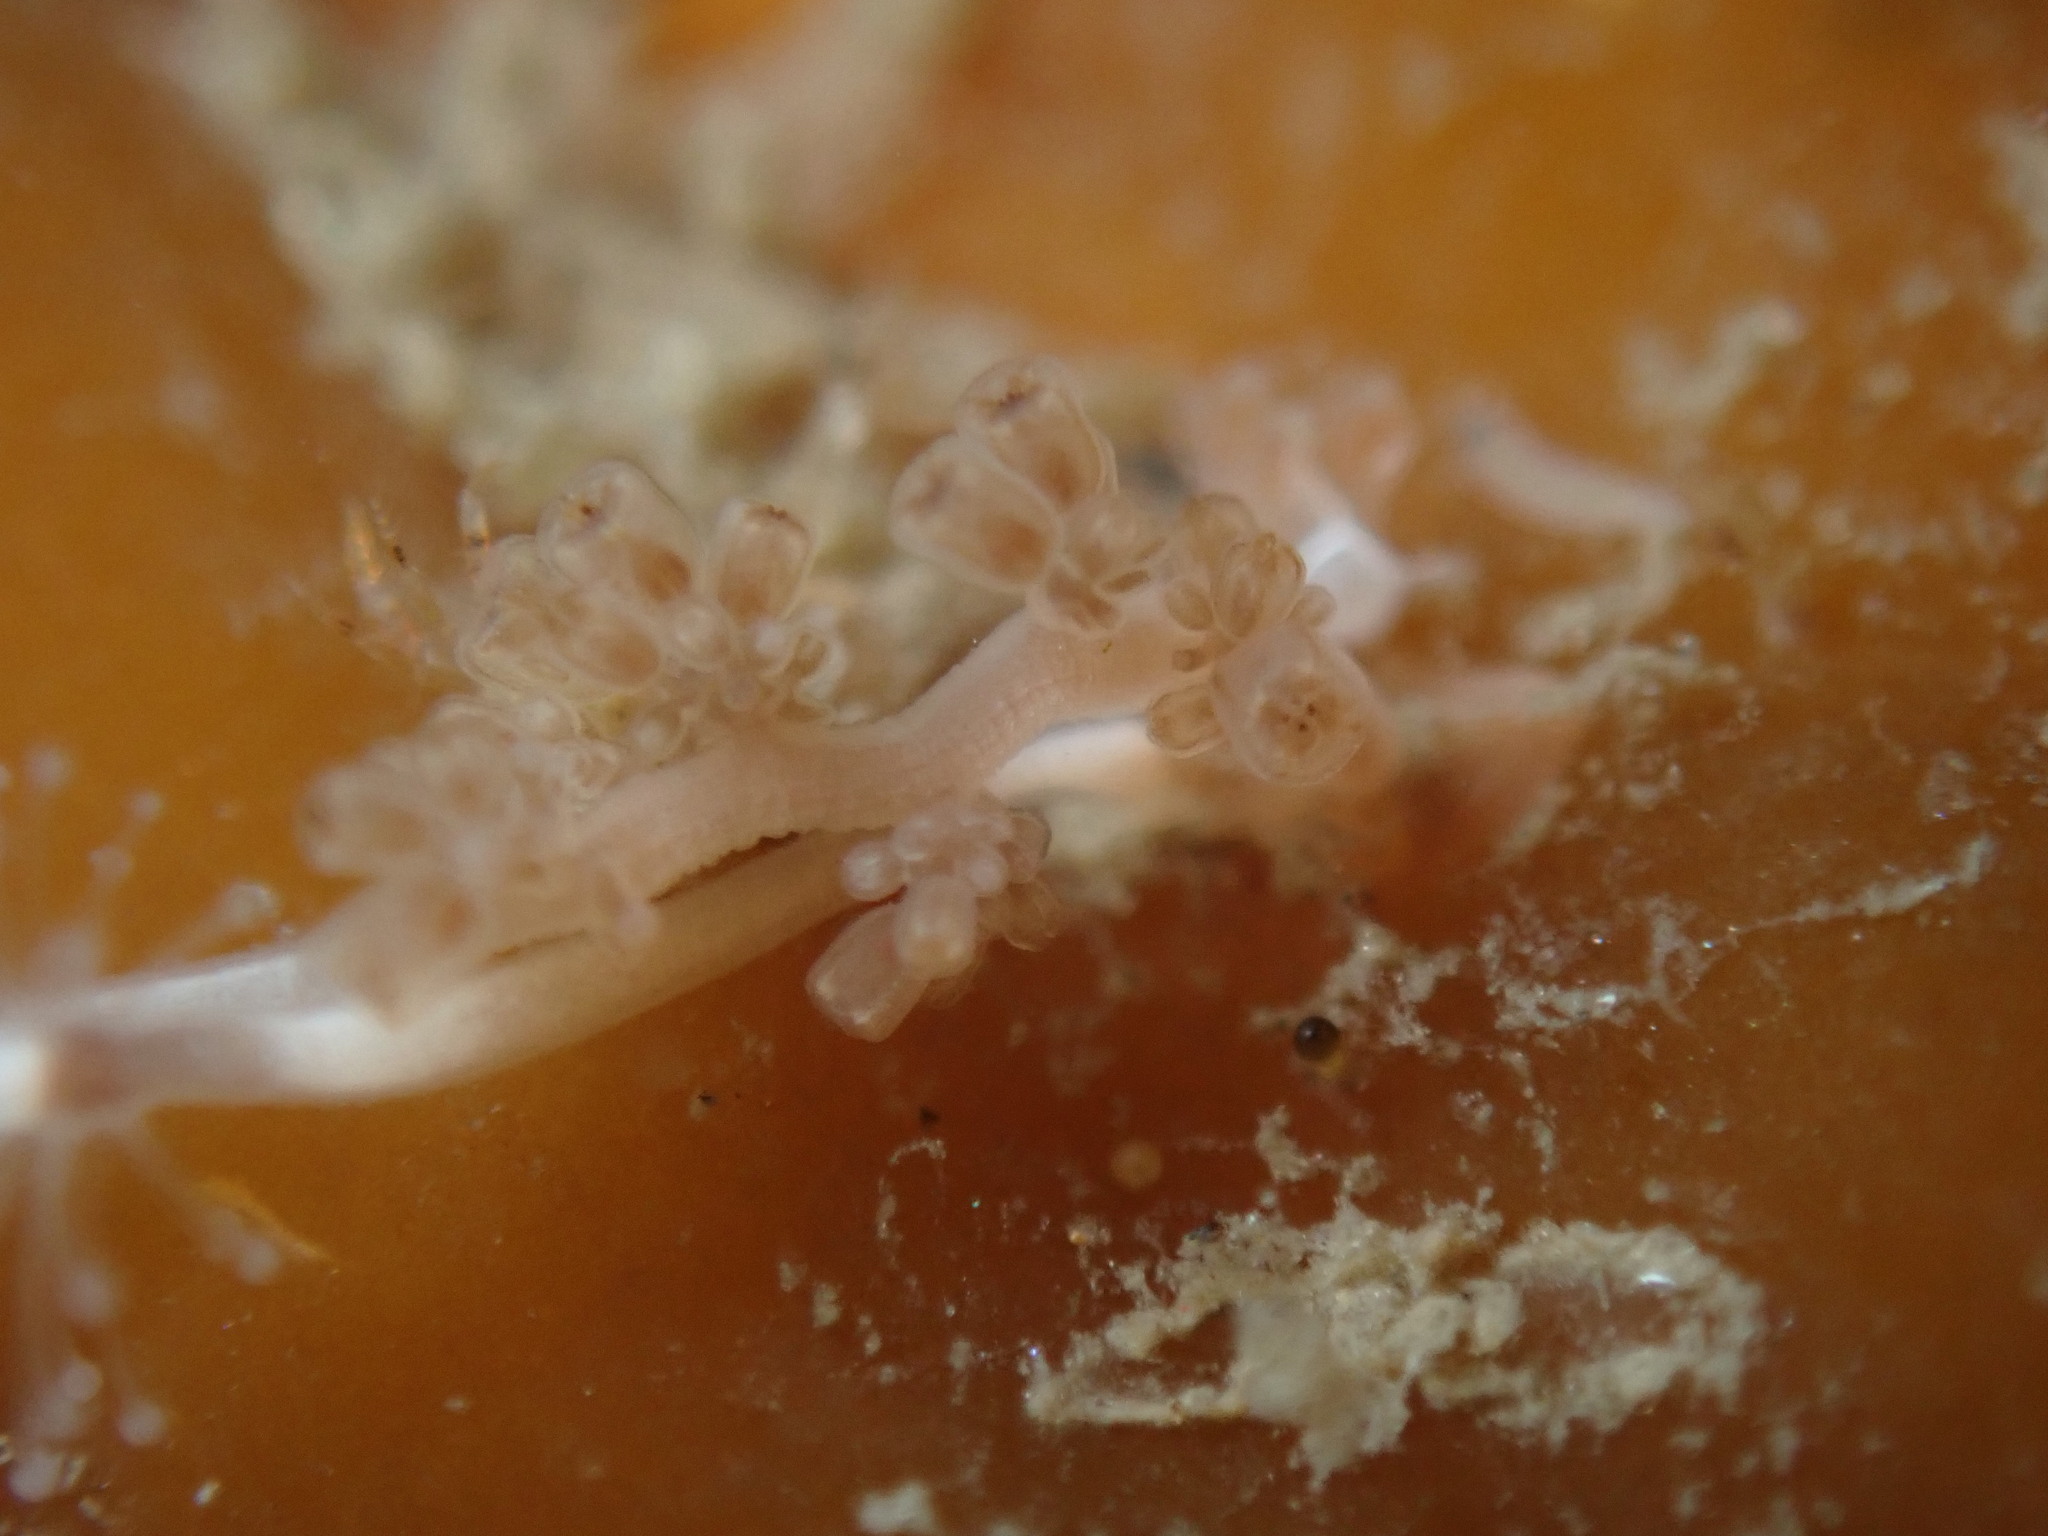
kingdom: Animalia
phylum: Cnidaria
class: Hydrozoa
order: Anthoathecata
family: Hydrocorynidae
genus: Hydrocoryne
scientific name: Hydrocoryne bodegensis
